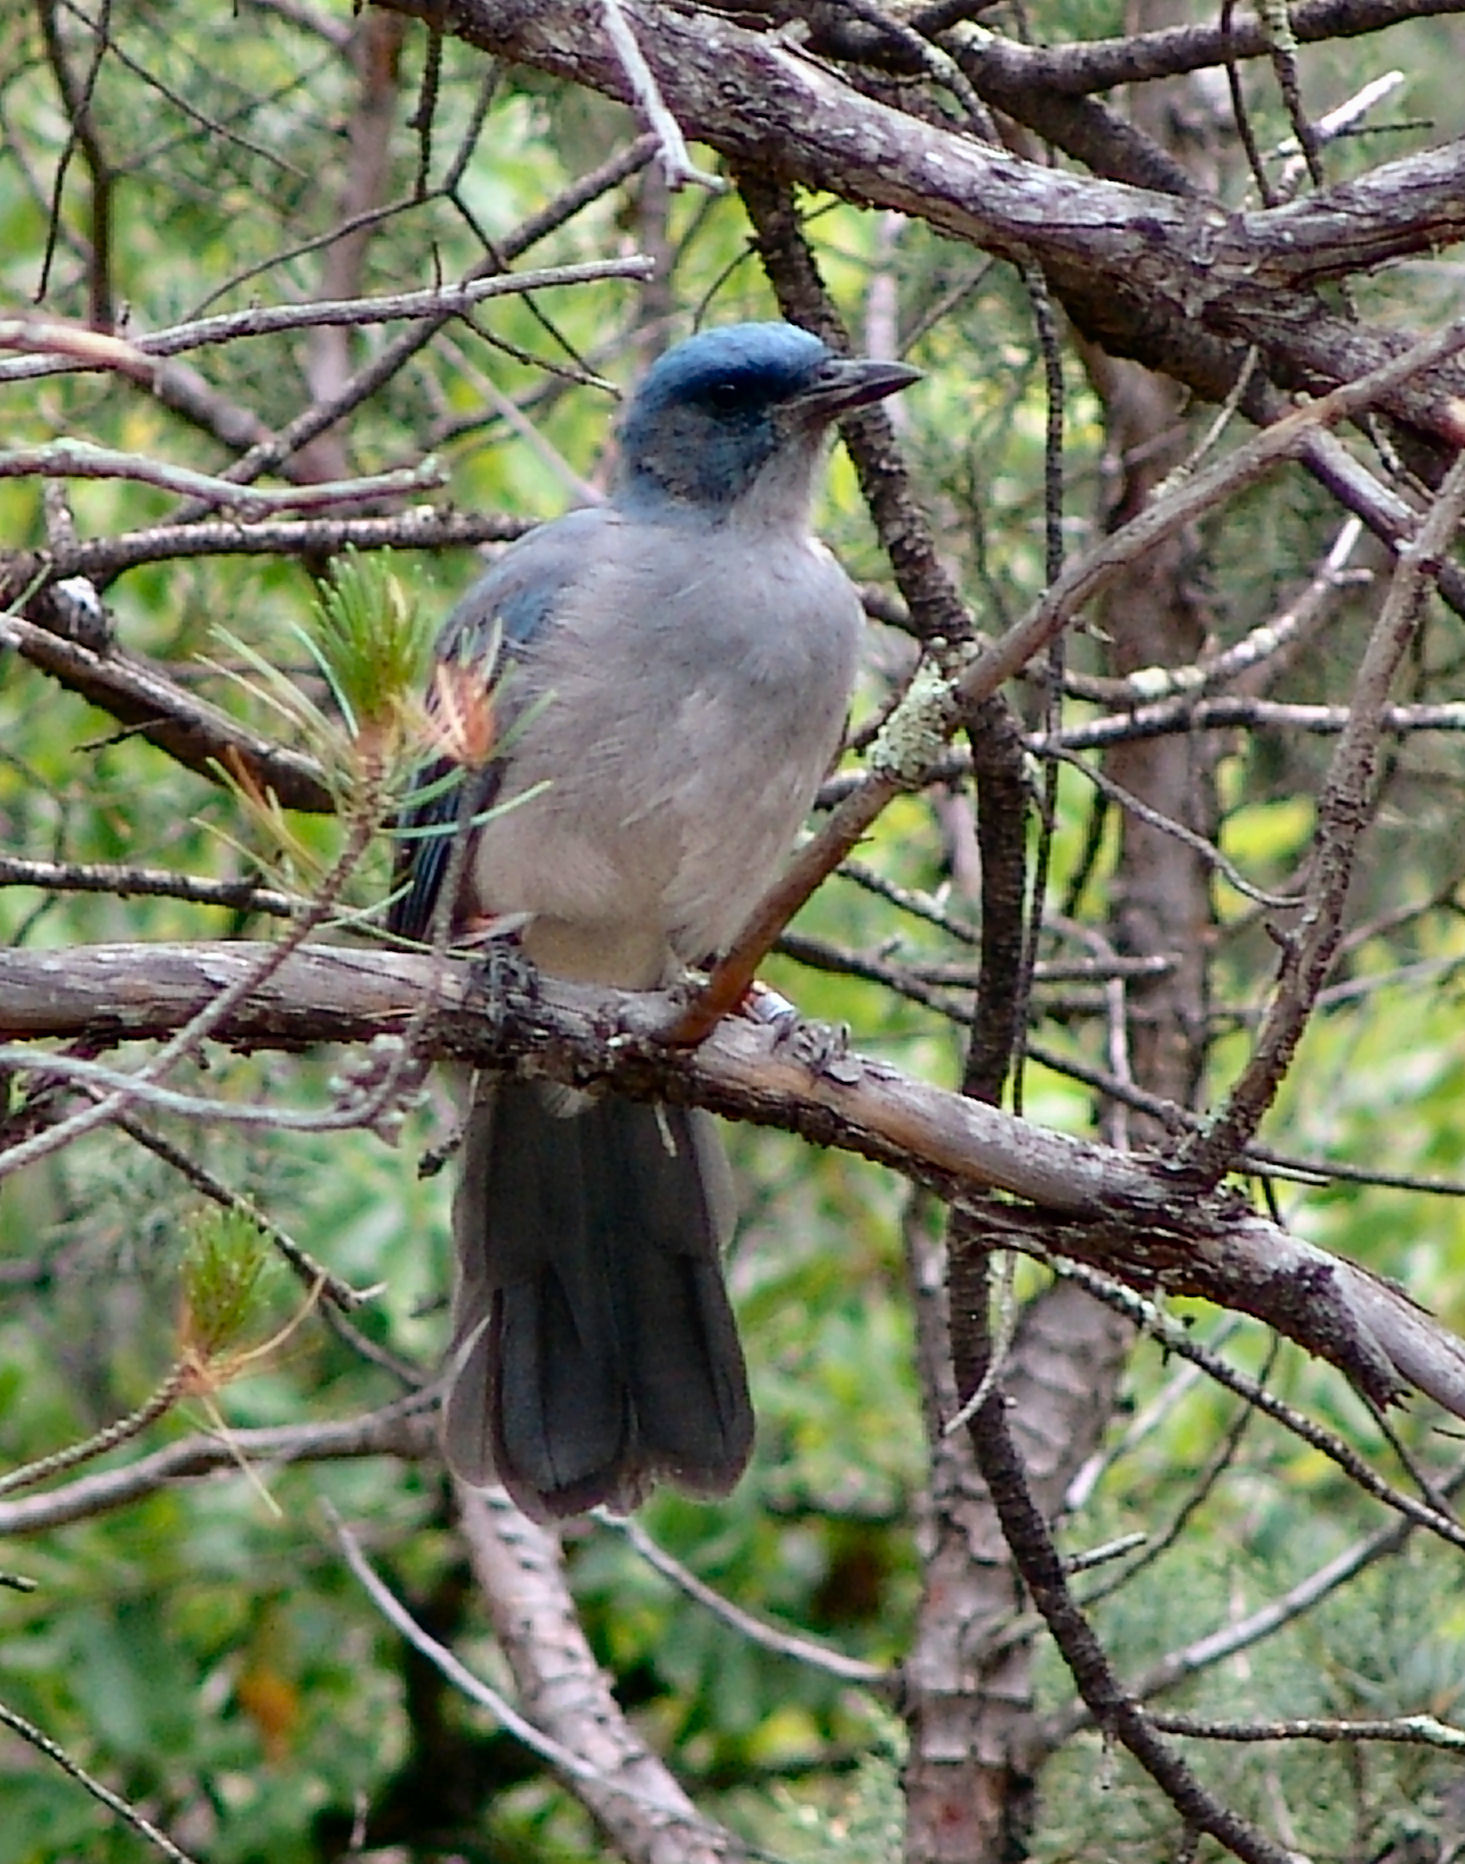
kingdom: Animalia
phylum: Chordata
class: Aves
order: Passeriformes
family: Corvidae
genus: Aphelocoma
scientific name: Aphelocoma wollweberi
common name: Mexican jay
